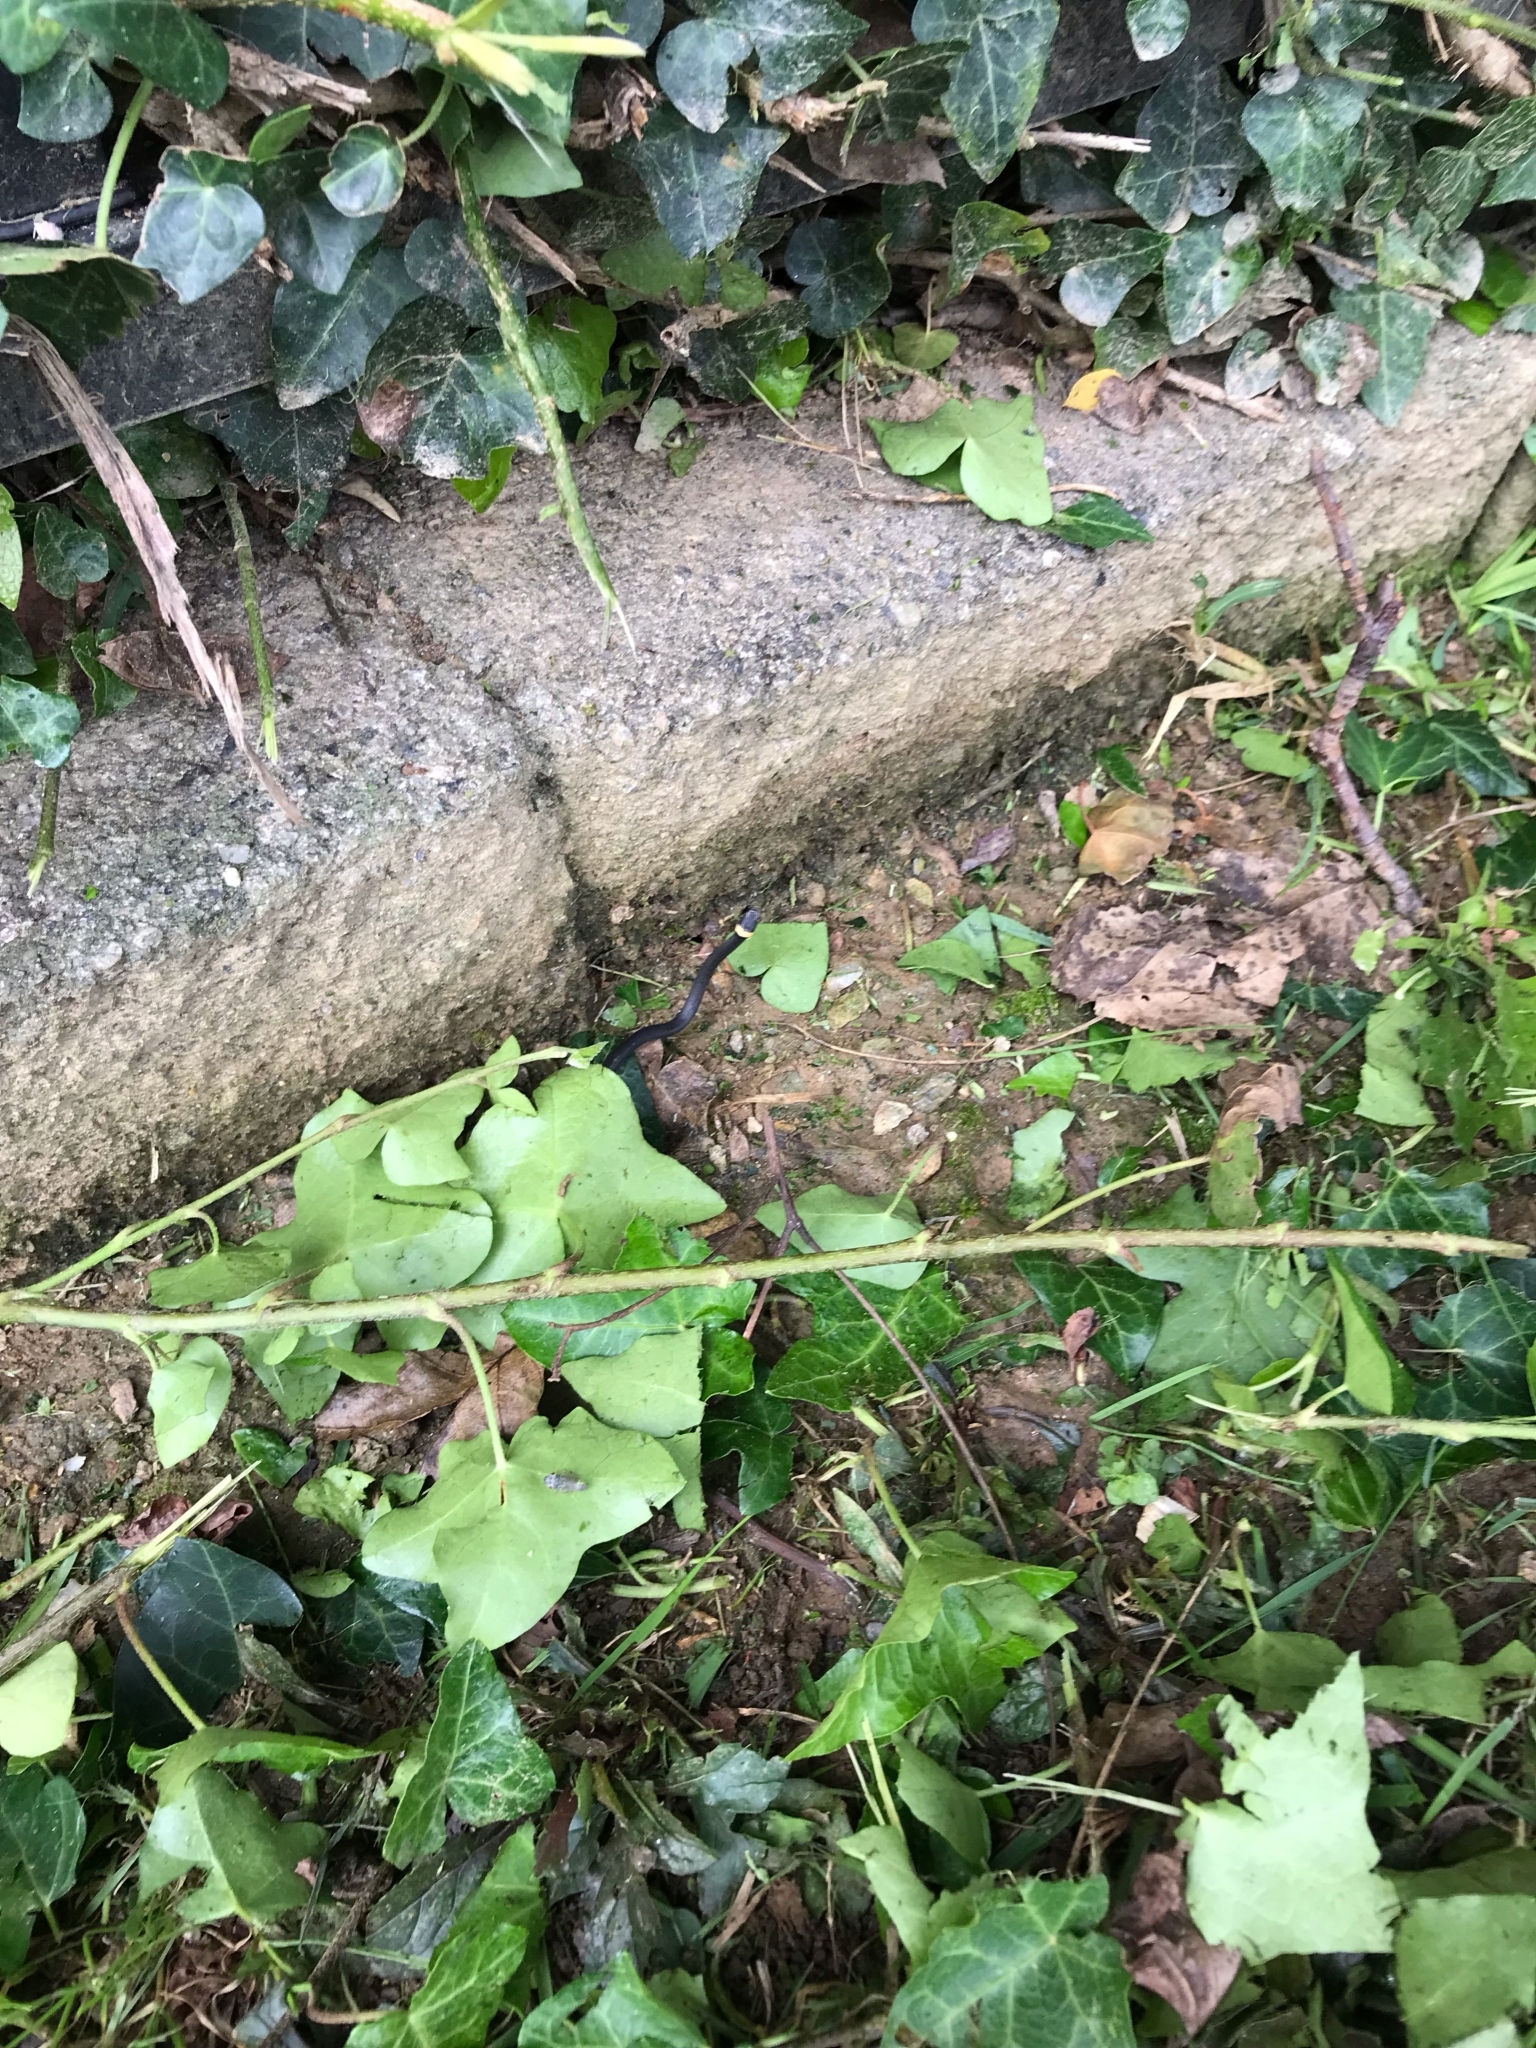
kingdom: Animalia
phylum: Chordata
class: Squamata
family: Colubridae
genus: Diadophis
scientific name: Diadophis punctatus
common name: Ringneck snake
